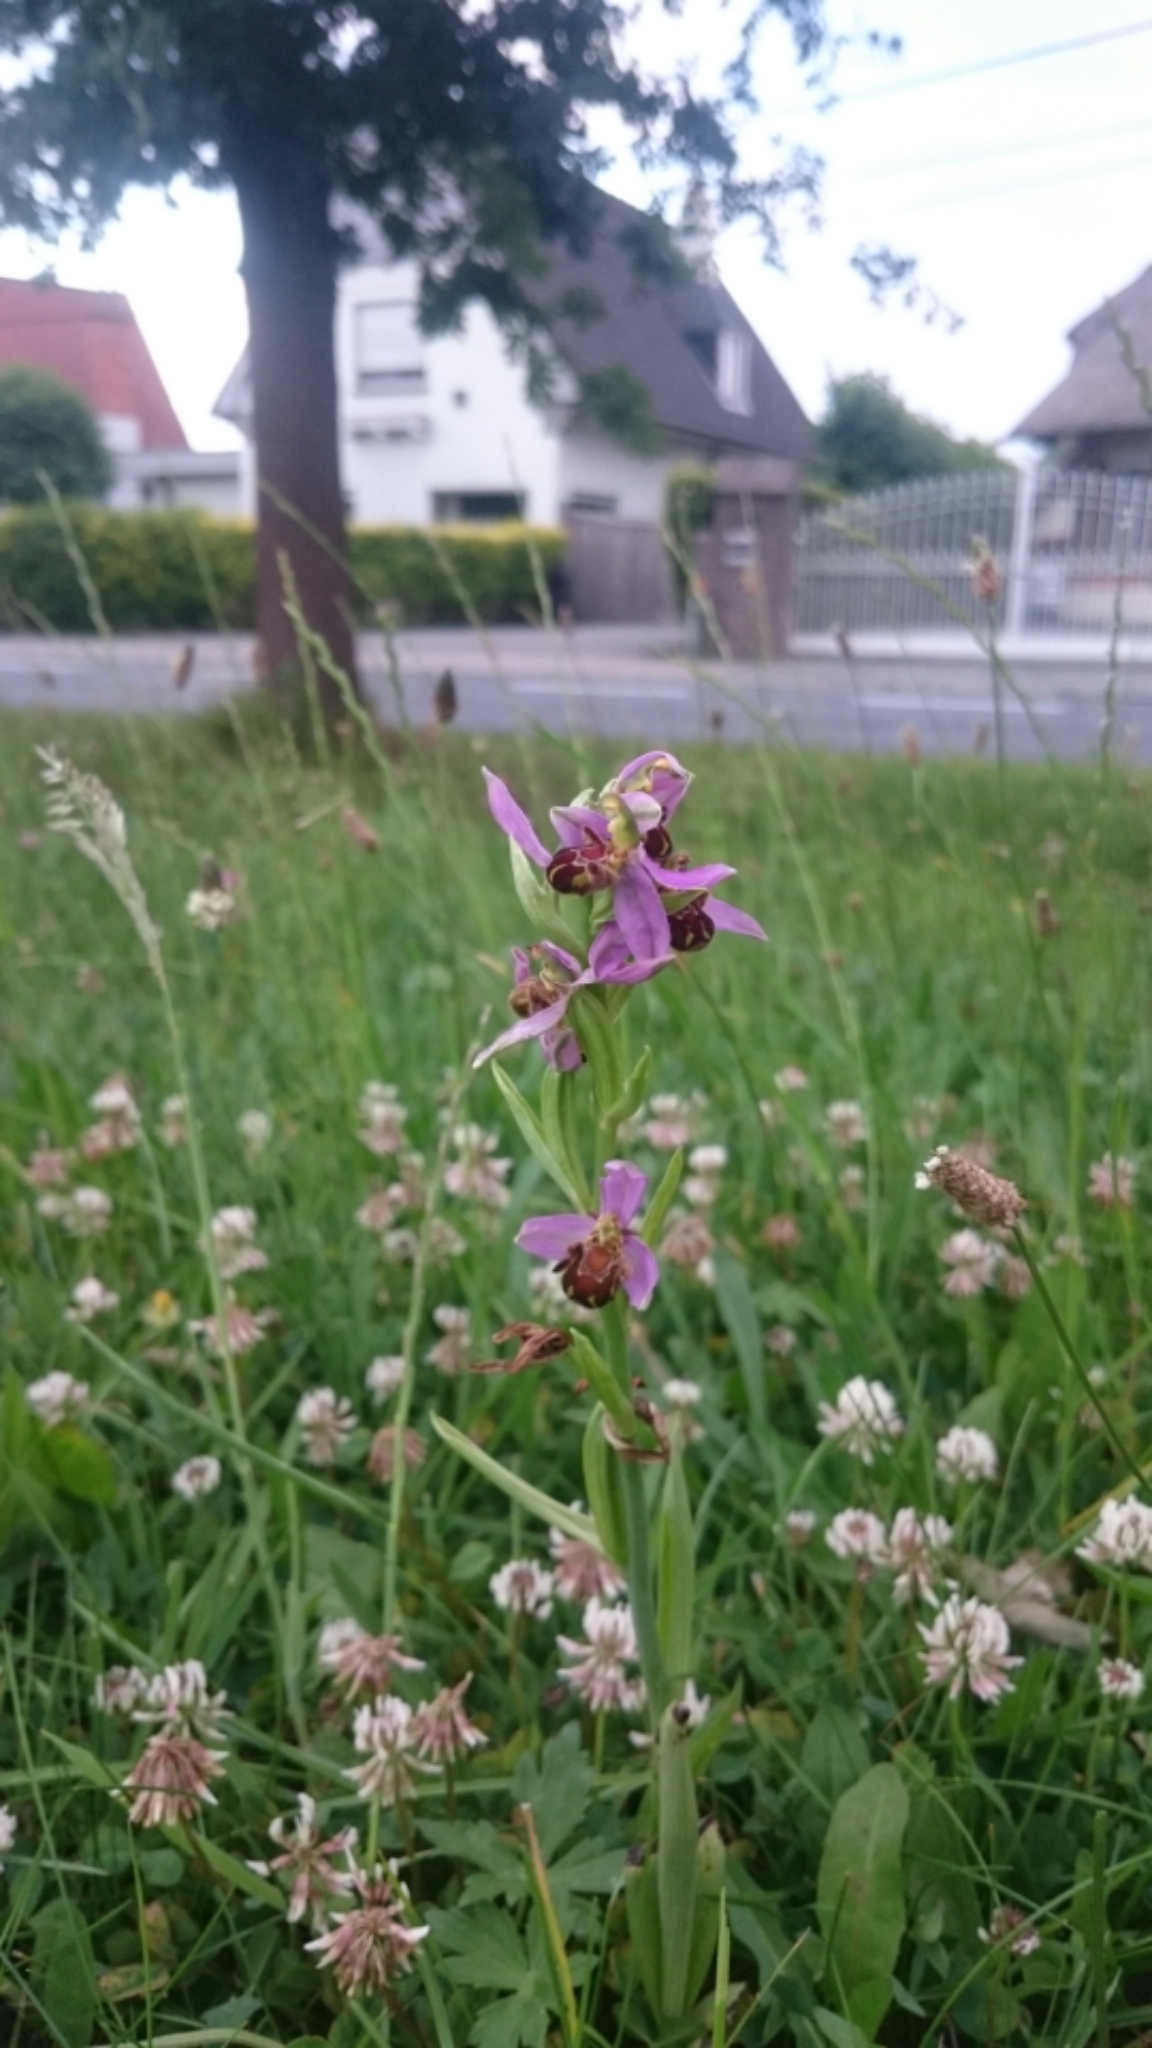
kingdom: Plantae
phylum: Tracheophyta
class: Liliopsida
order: Asparagales
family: Orchidaceae
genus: Ophrys
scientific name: Ophrys apifera
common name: Bee orchid
